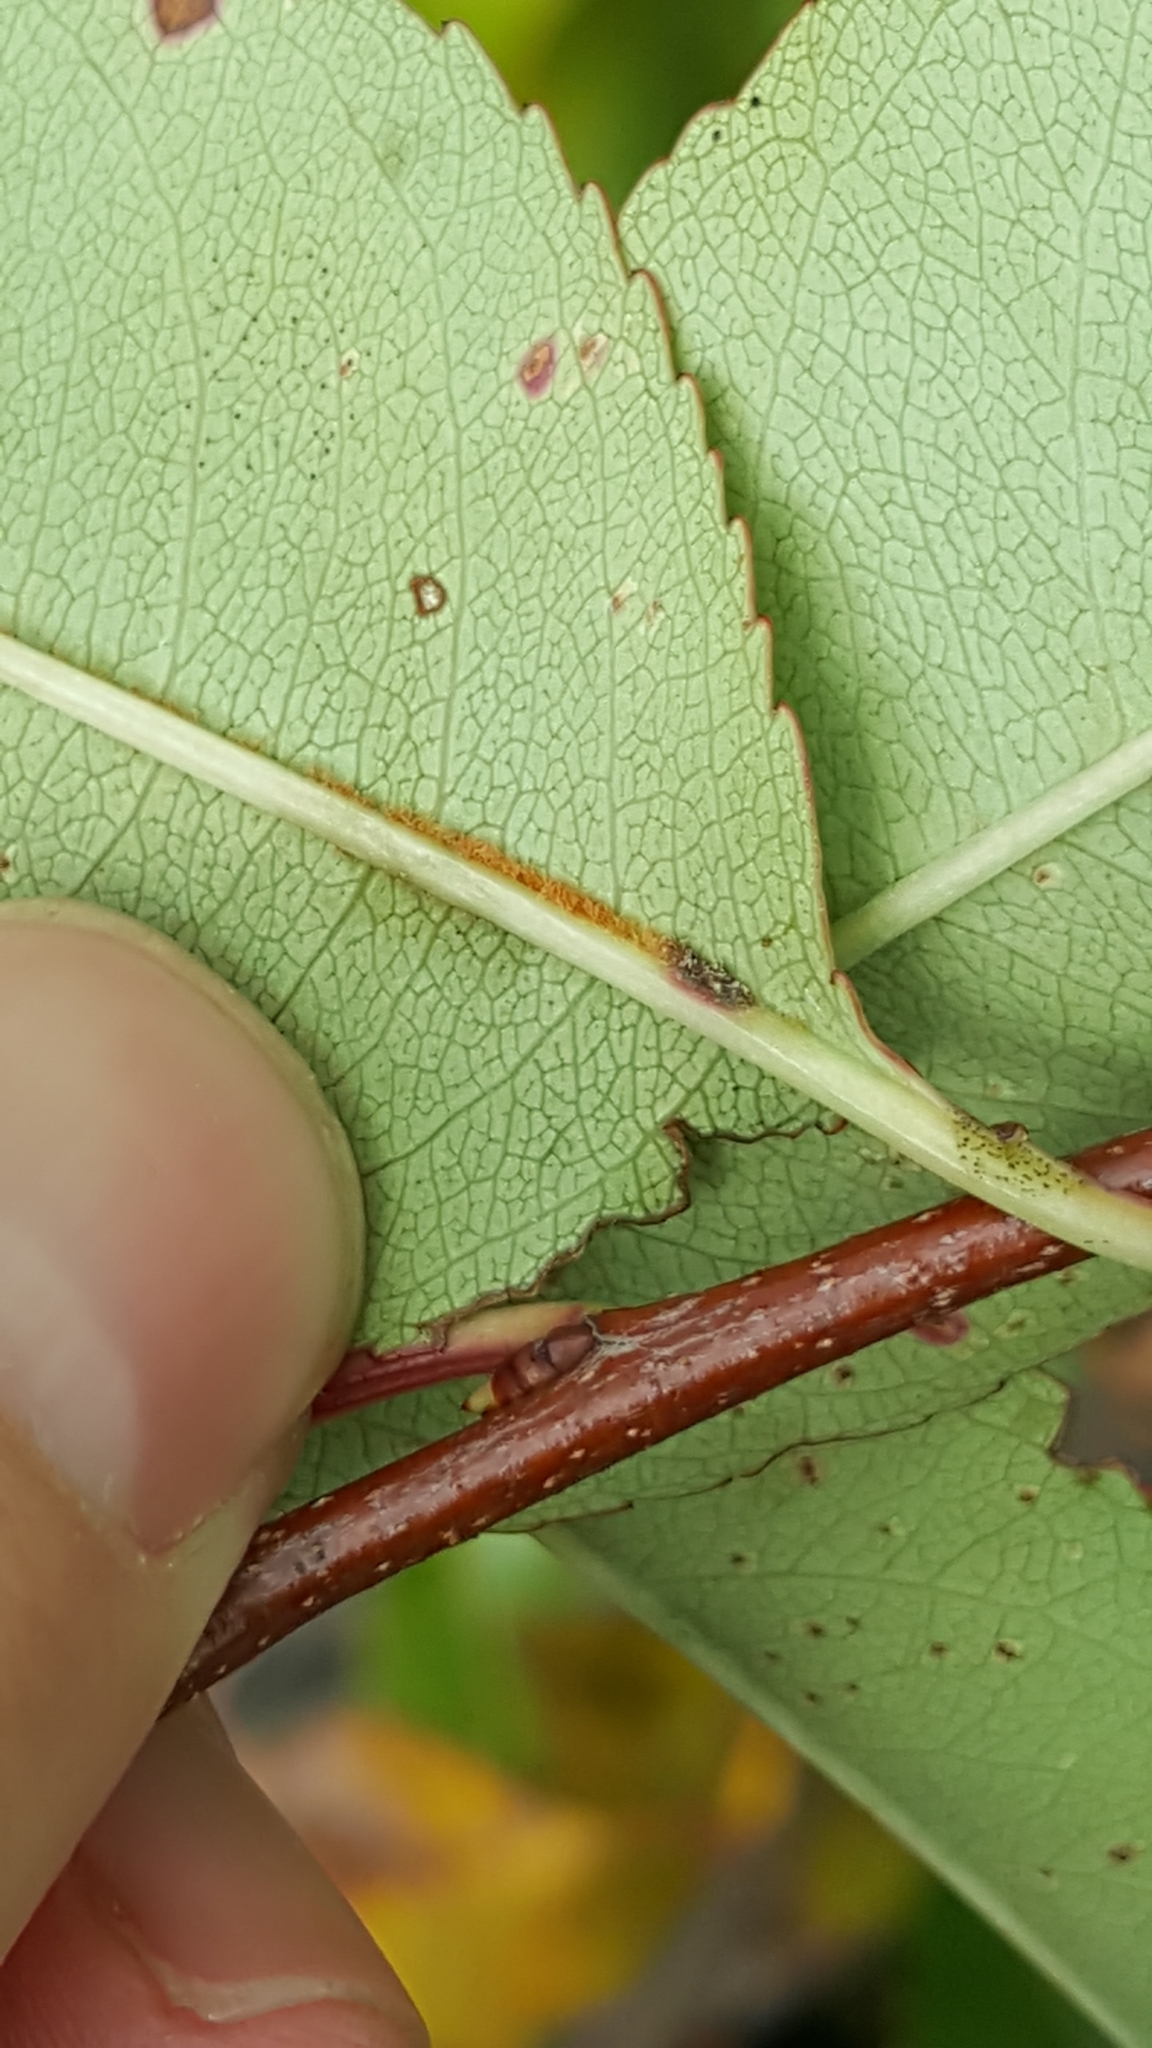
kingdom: Plantae
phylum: Tracheophyta
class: Magnoliopsida
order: Rosales
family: Rosaceae
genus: Prunus
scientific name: Prunus serotina
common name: Black cherry
